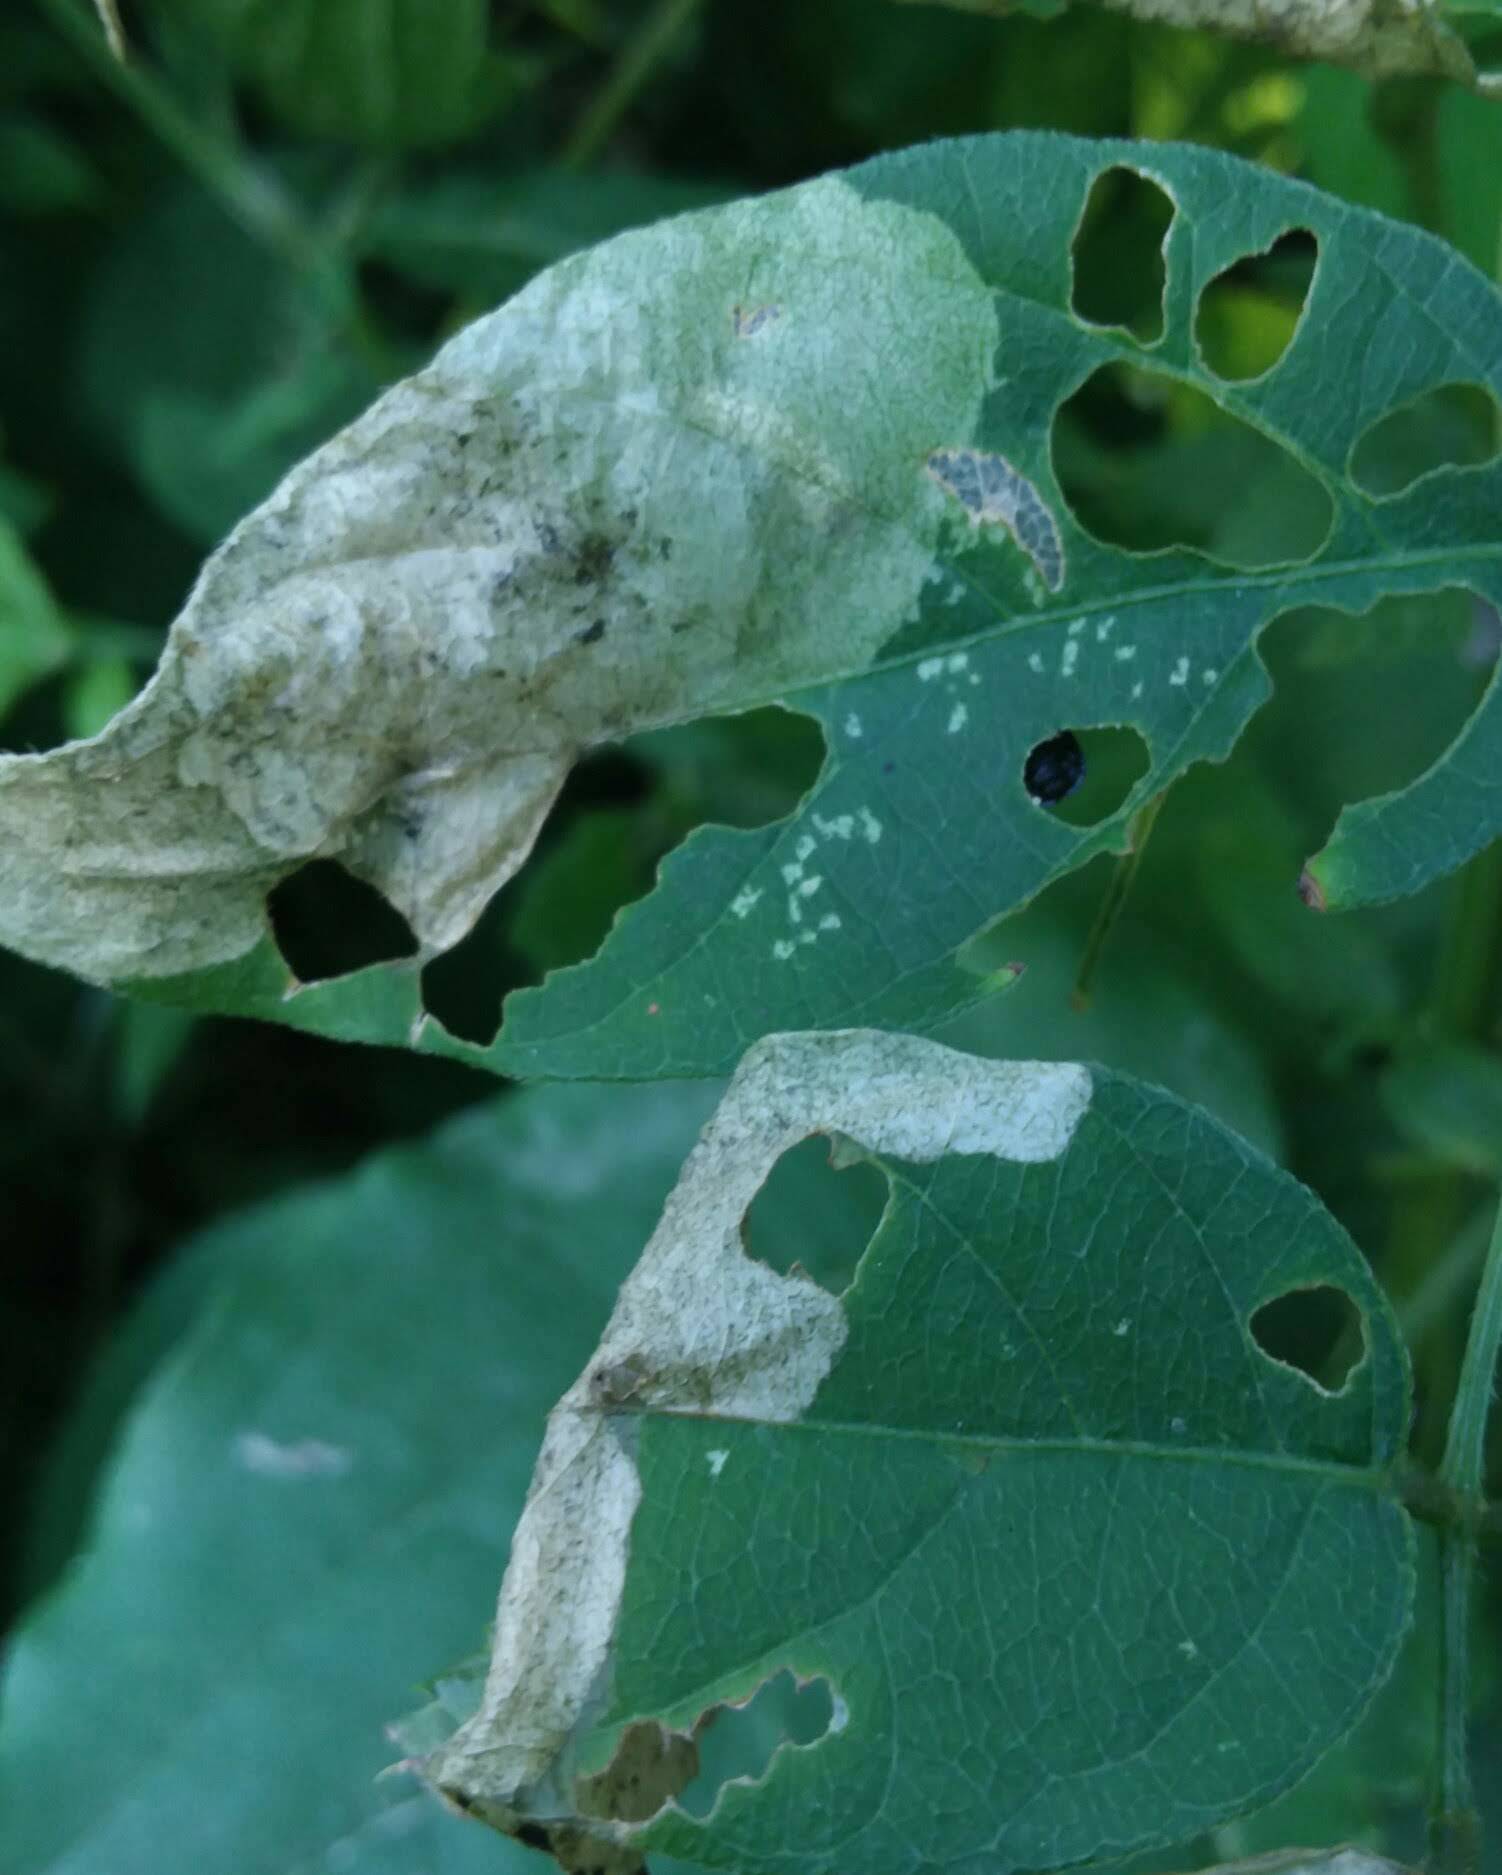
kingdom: Animalia
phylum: Arthropoda
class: Insecta
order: Coleoptera
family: Chrysomelidae
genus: Odontota
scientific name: Odontota scapularis
